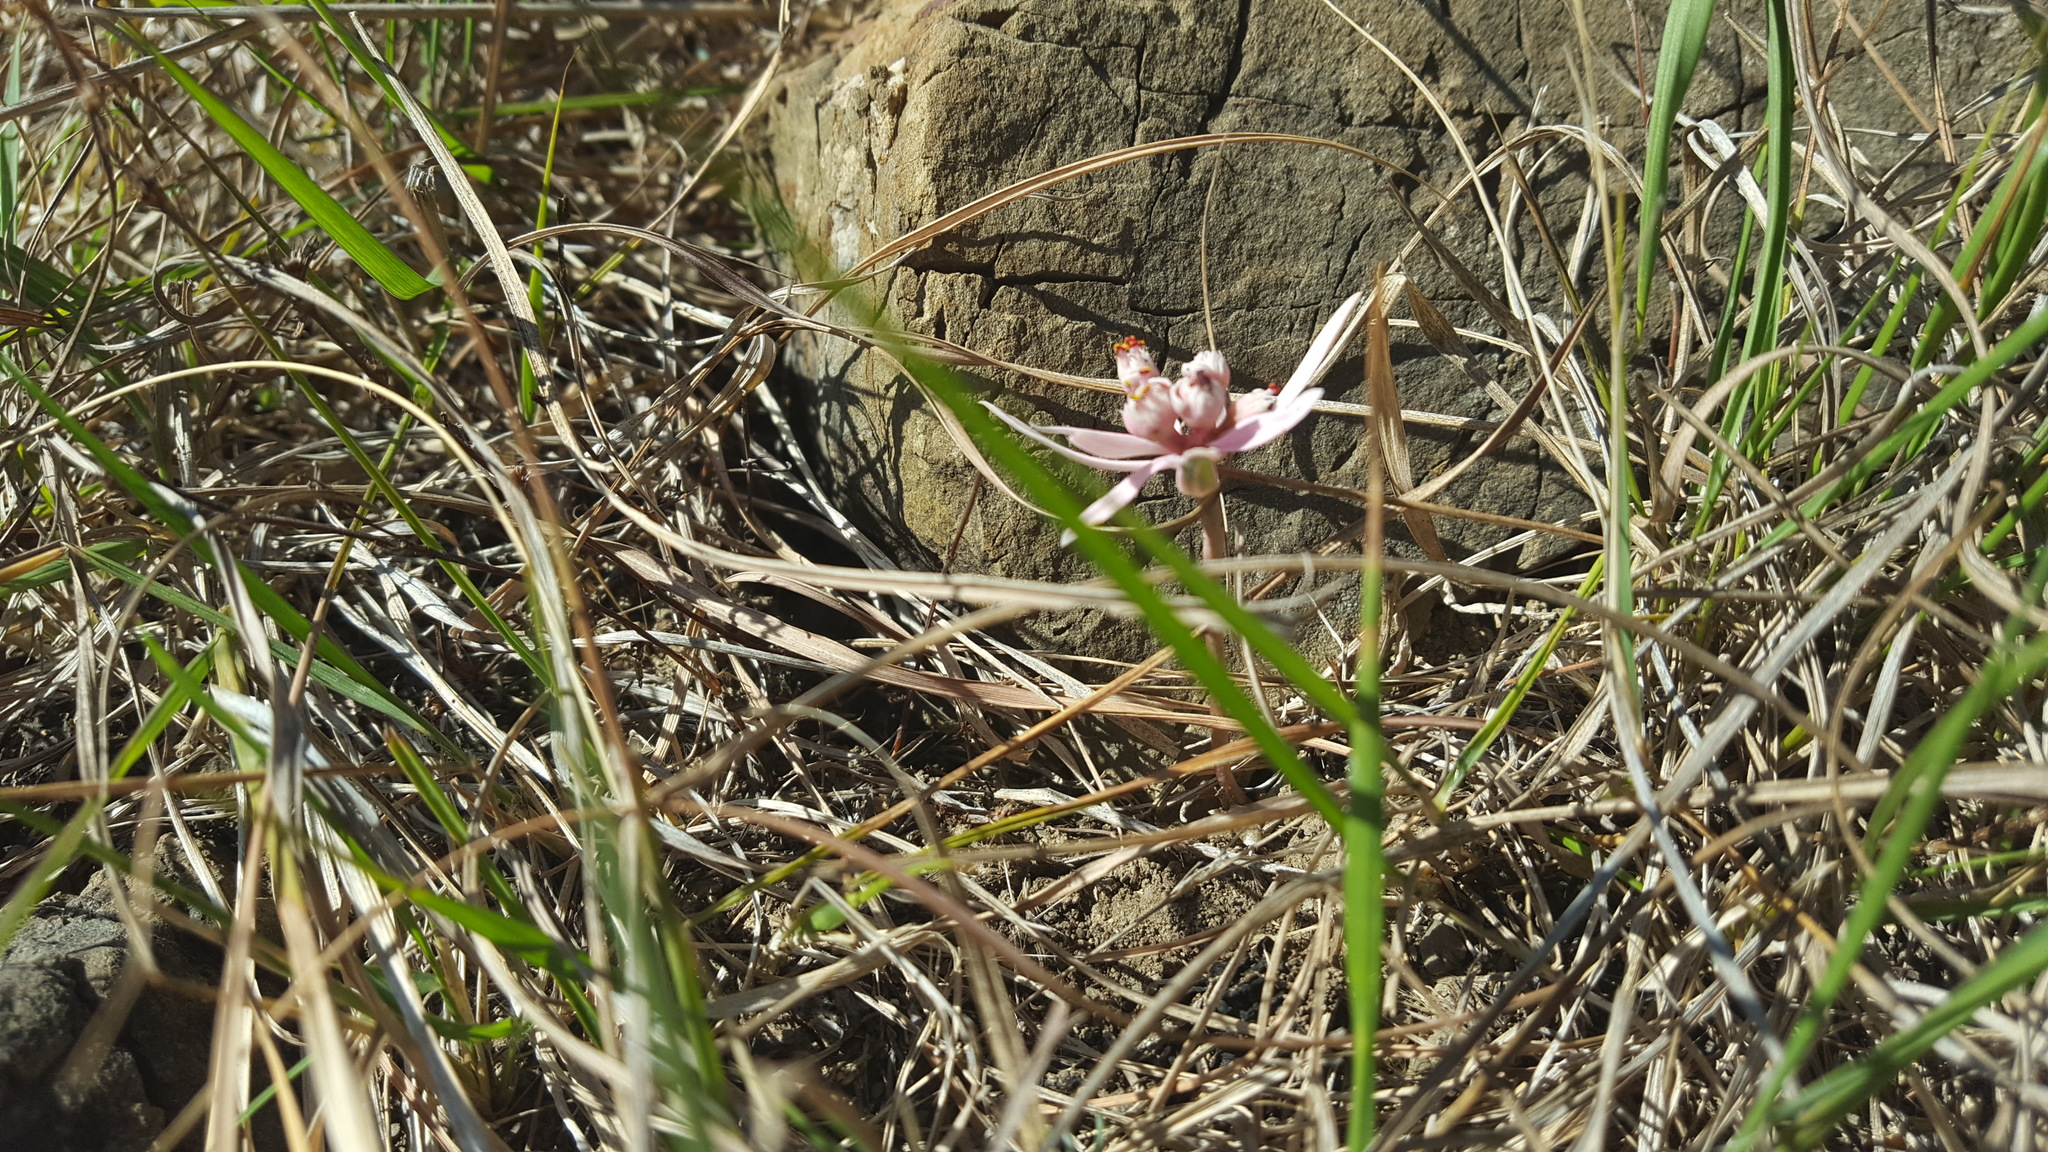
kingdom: Plantae
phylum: Tracheophyta
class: Magnoliopsida
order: Malpighiales
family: Euphorbiaceae
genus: Euphorbia
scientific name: Euphorbia radians
